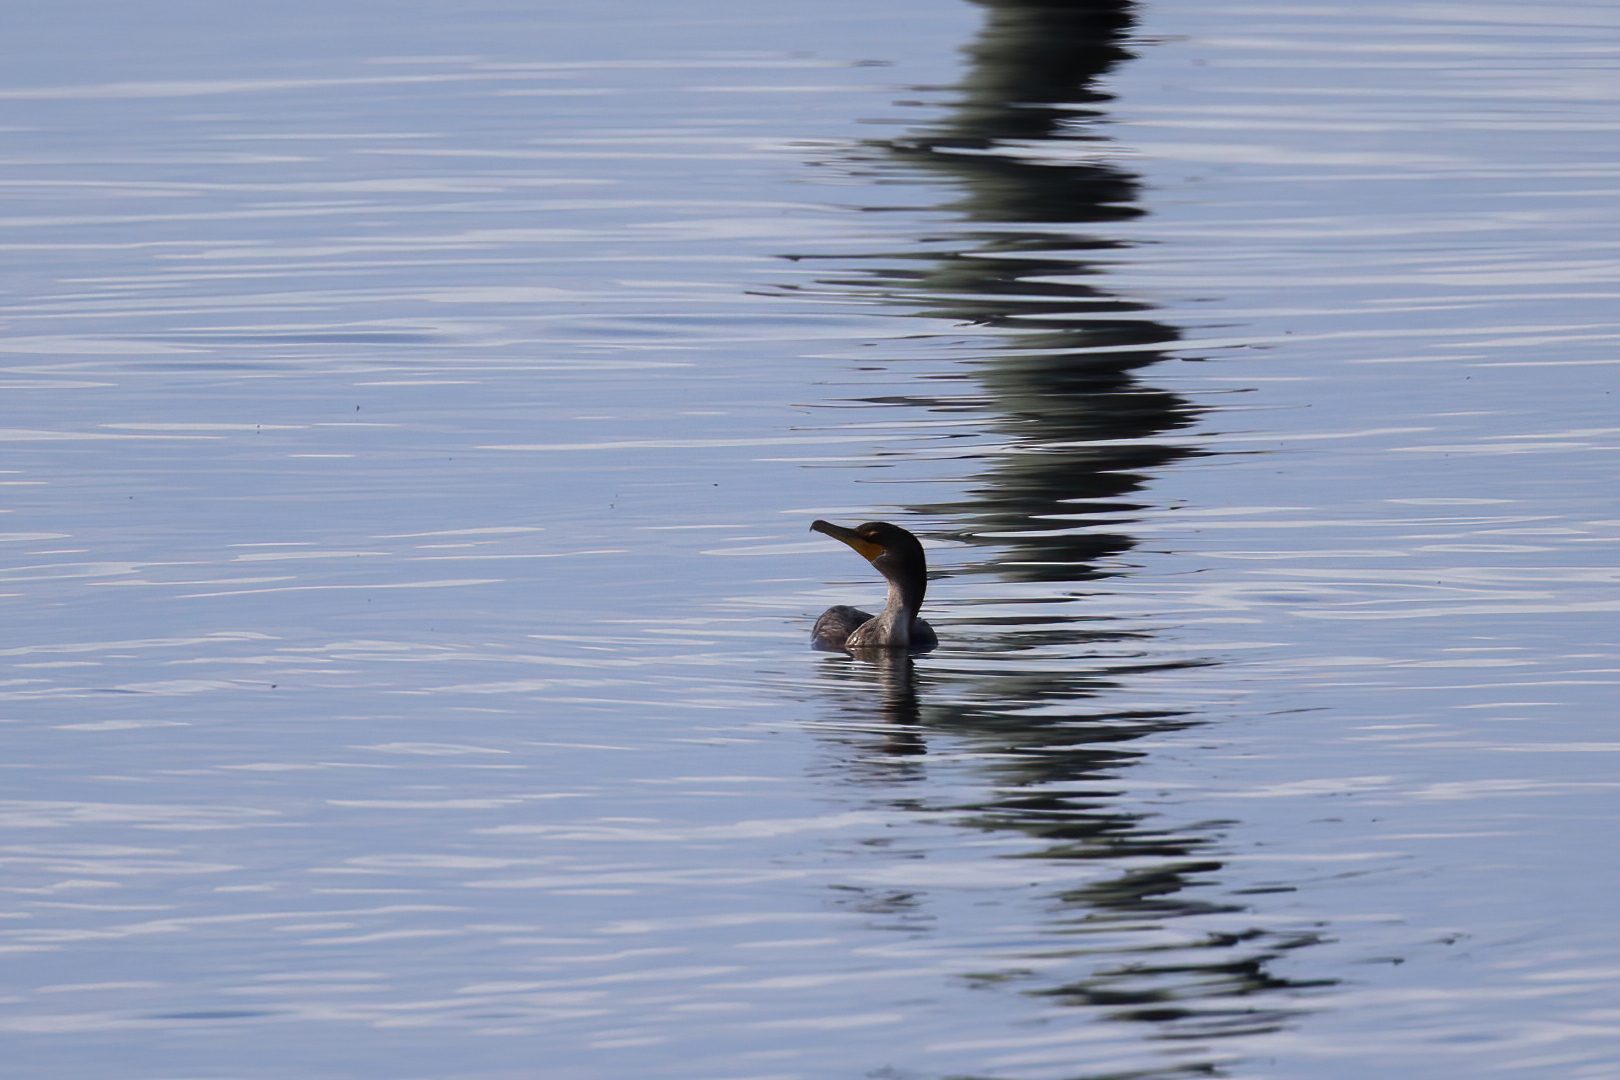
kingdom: Animalia
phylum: Chordata
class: Aves
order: Suliformes
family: Phalacrocoracidae
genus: Phalacrocorax
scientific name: Phalacrocorax auritus
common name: Double-crested cormorant
